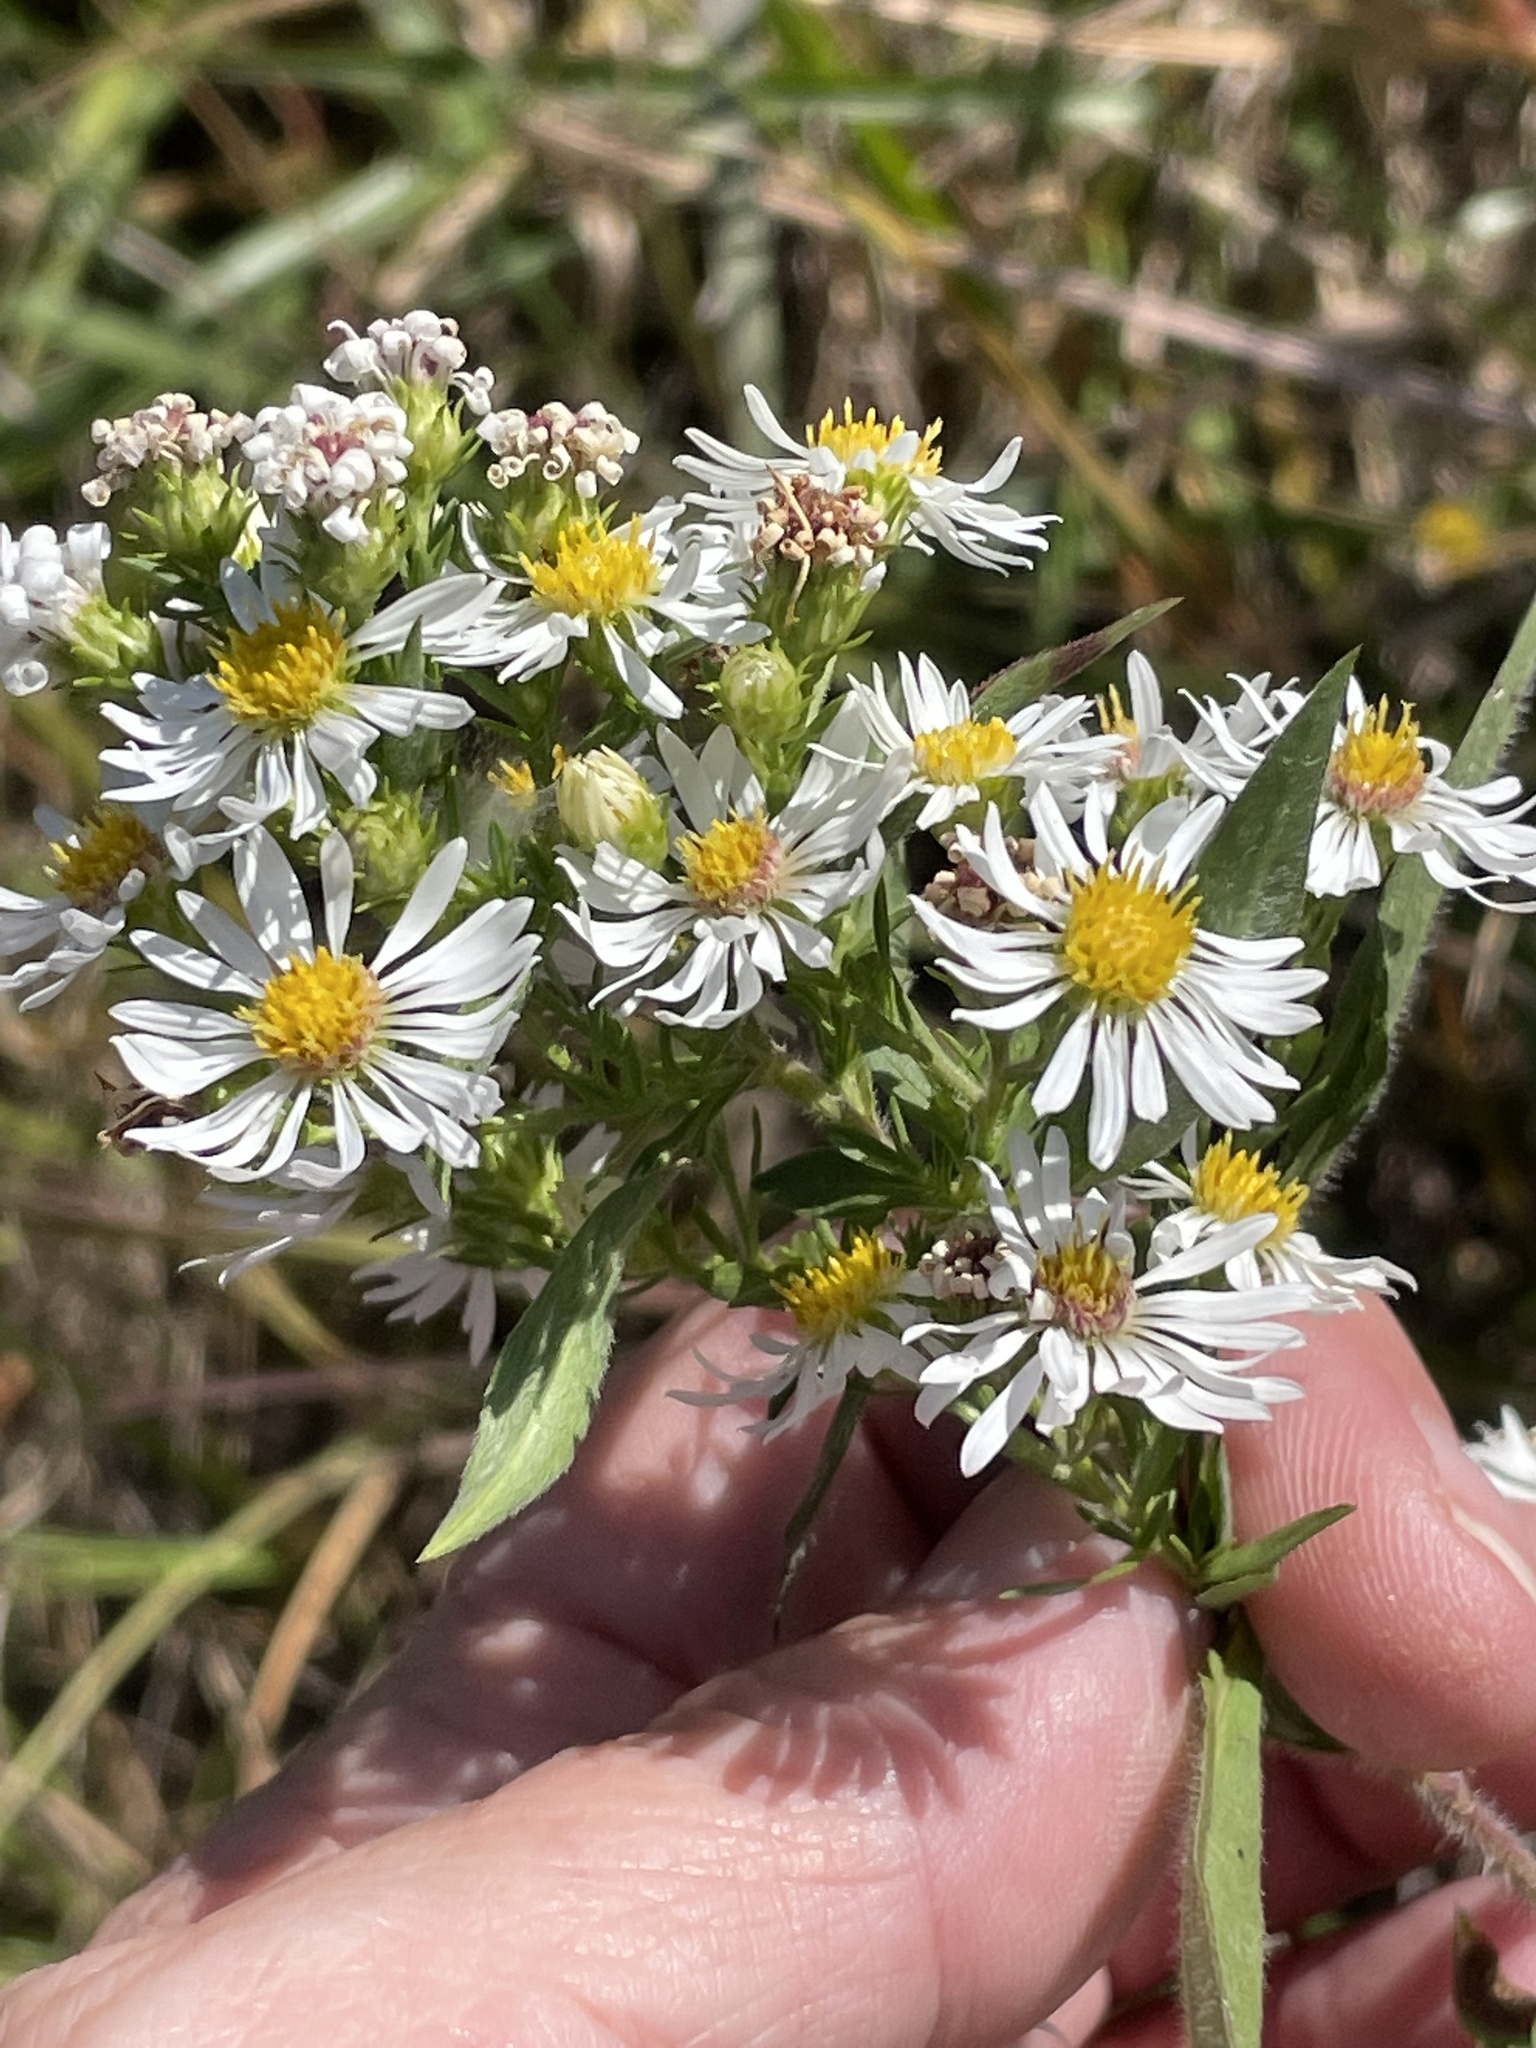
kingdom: Plantae
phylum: Tracheophyta
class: Magnoliopsida
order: Asterales
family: Asteraceae
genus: Symphyotrichum
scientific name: Symphyotrichum pilosum
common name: Awl aster
